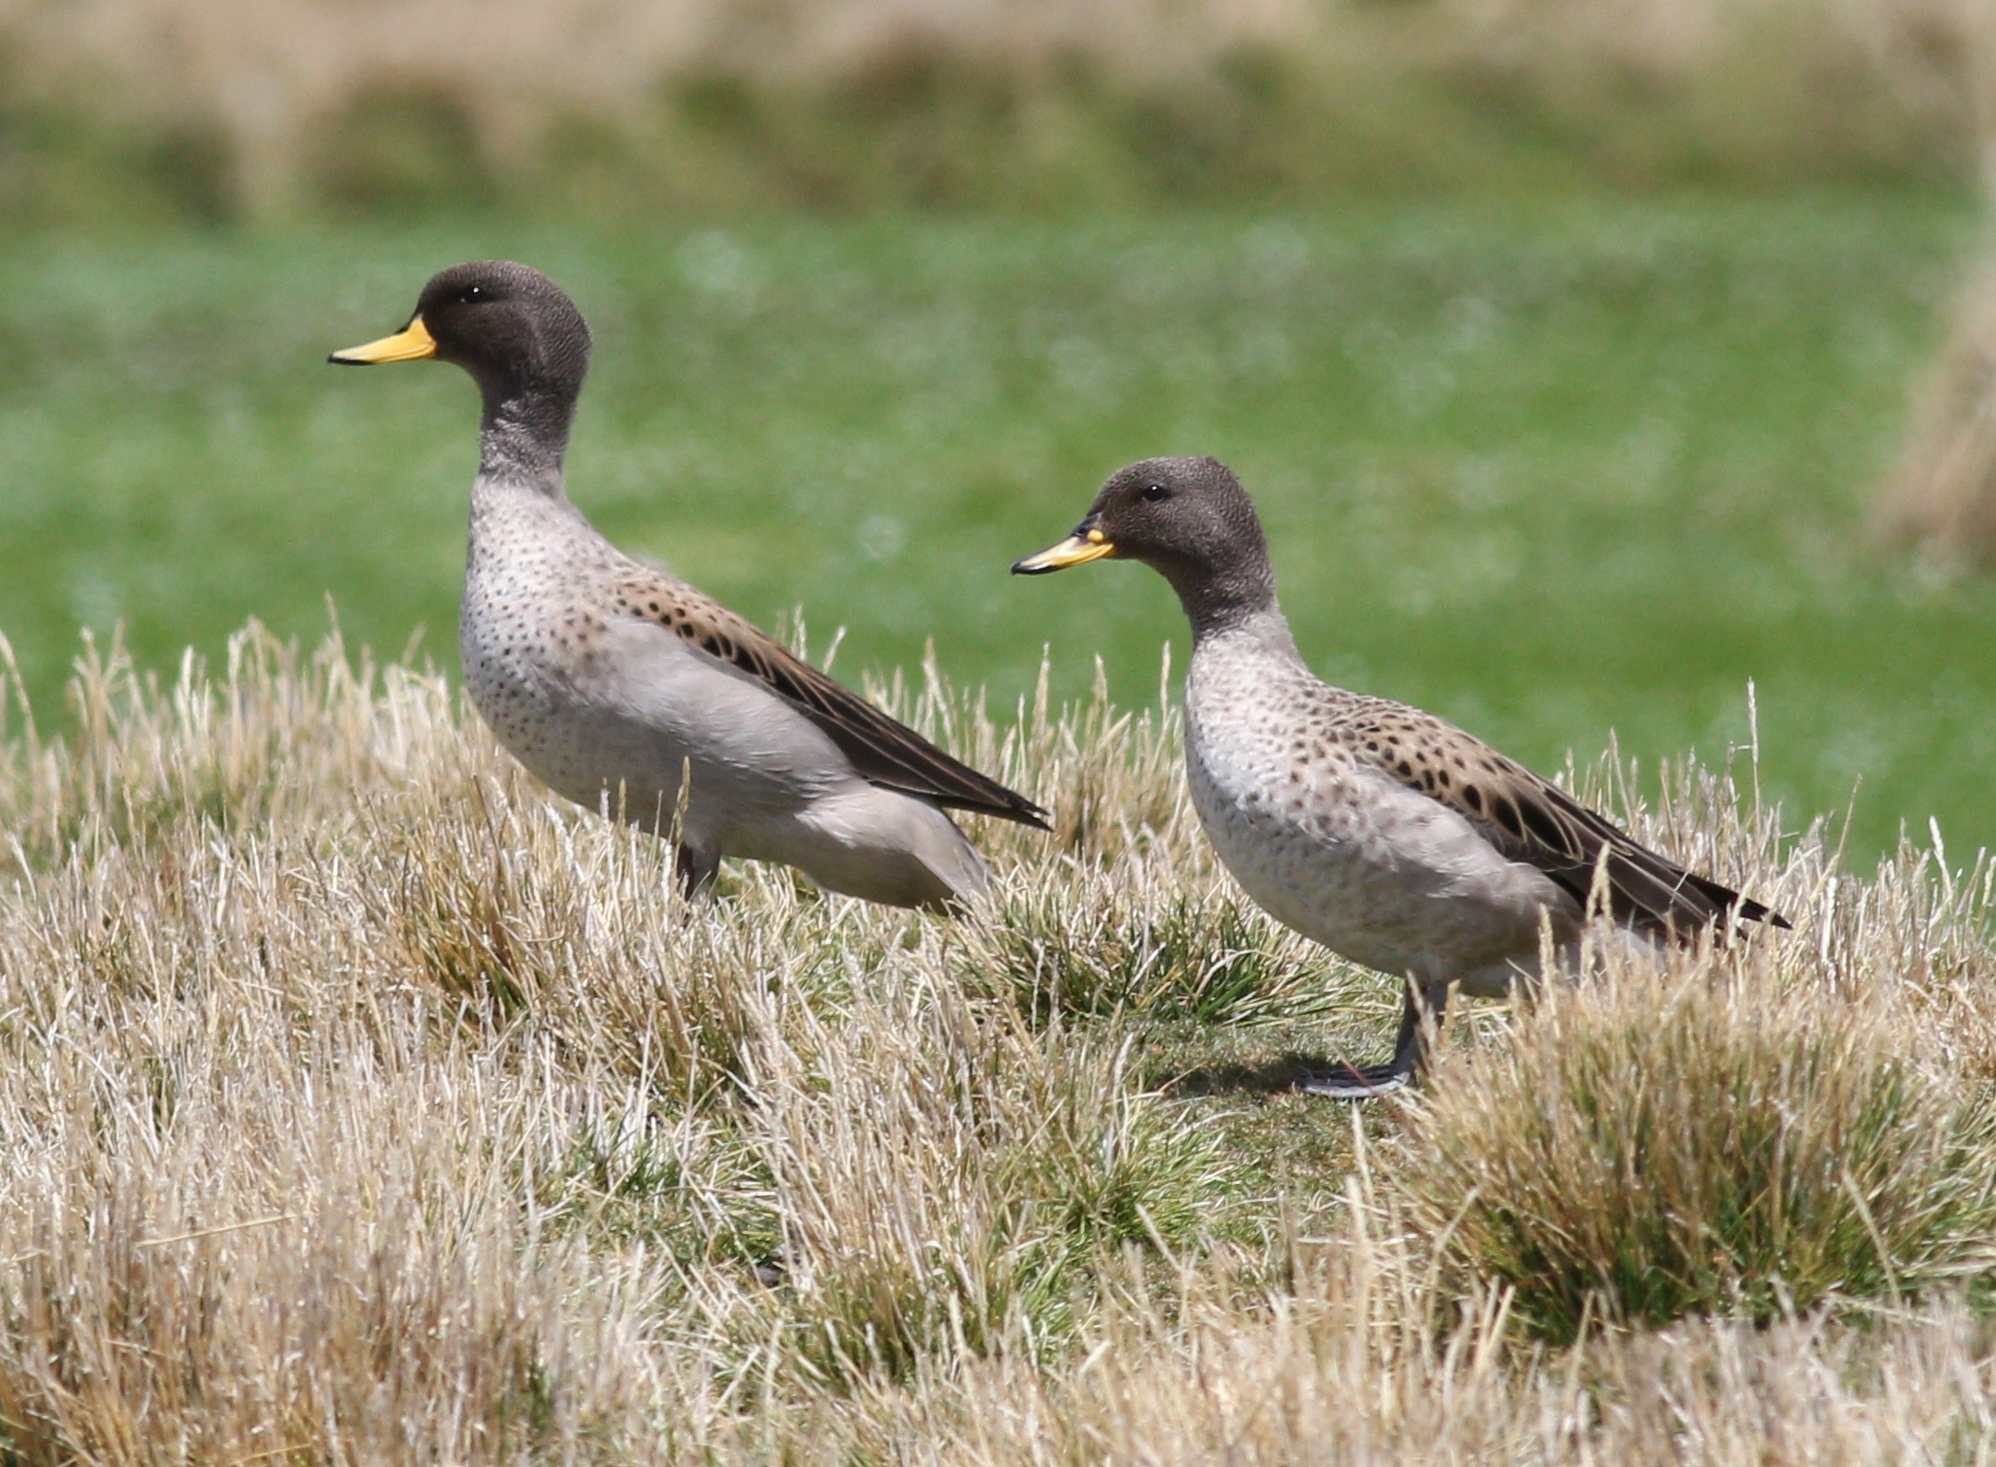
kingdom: Animalia
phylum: Chordata
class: Aves
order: Anseriformes
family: Anatidae
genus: Anas
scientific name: Anas flavirostris
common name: Yellow-billed teal
